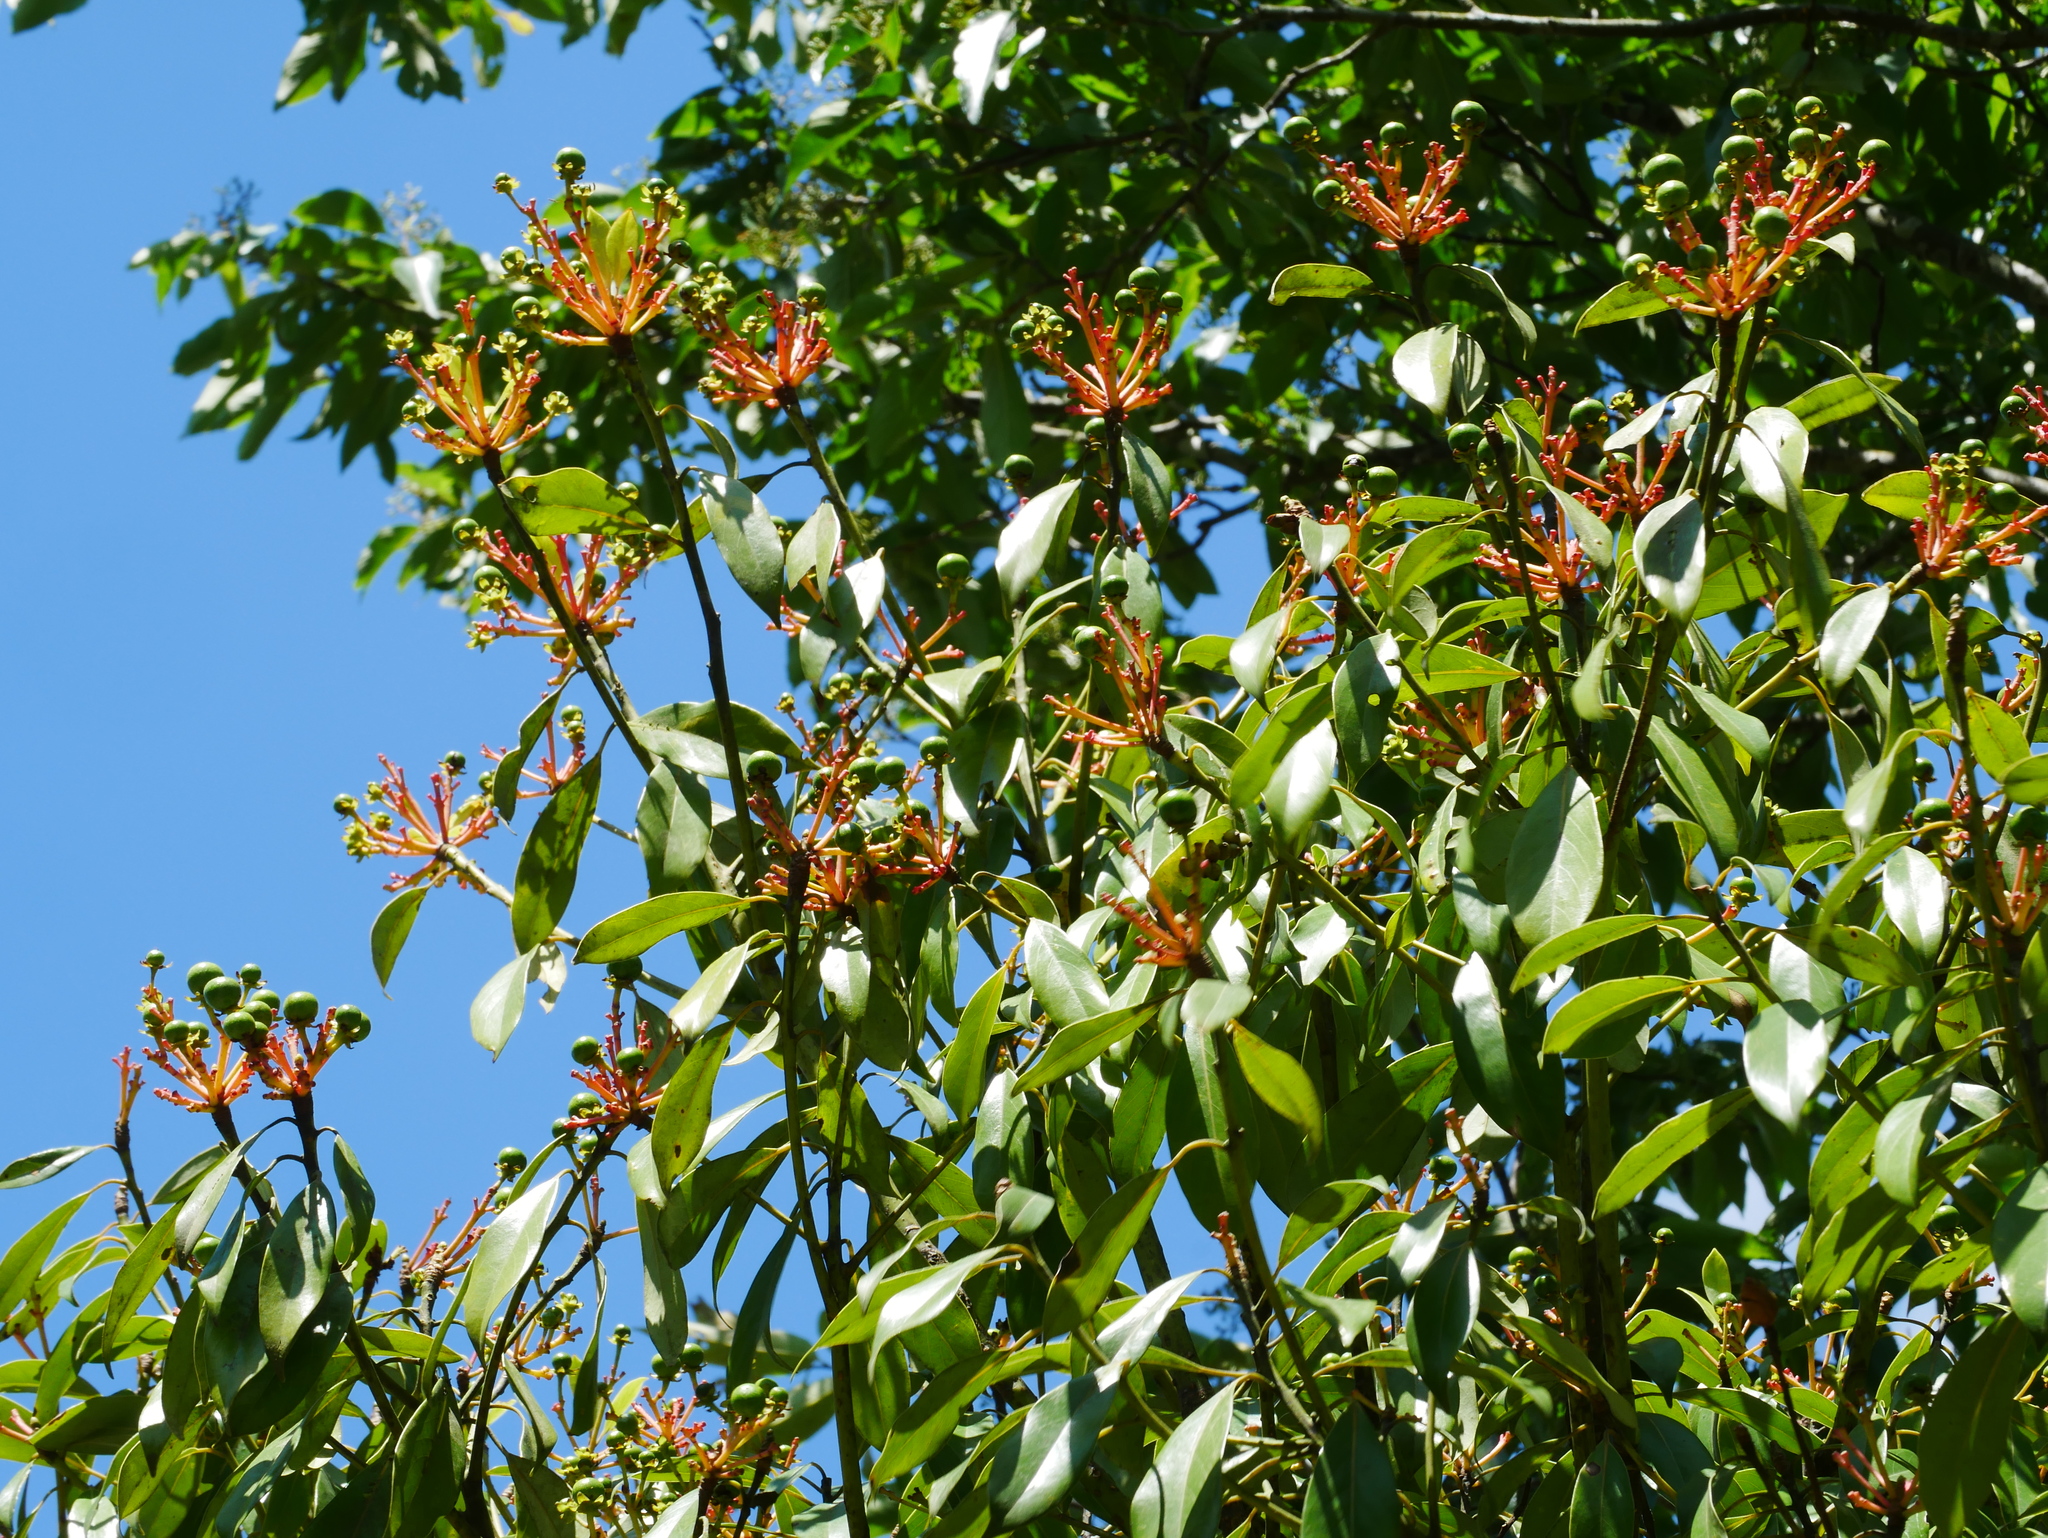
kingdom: Plantae
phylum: Tracheophyta
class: Magnoliopsida
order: Laurales
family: Lauraceae
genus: Machilus
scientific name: Machilus thunbergii
